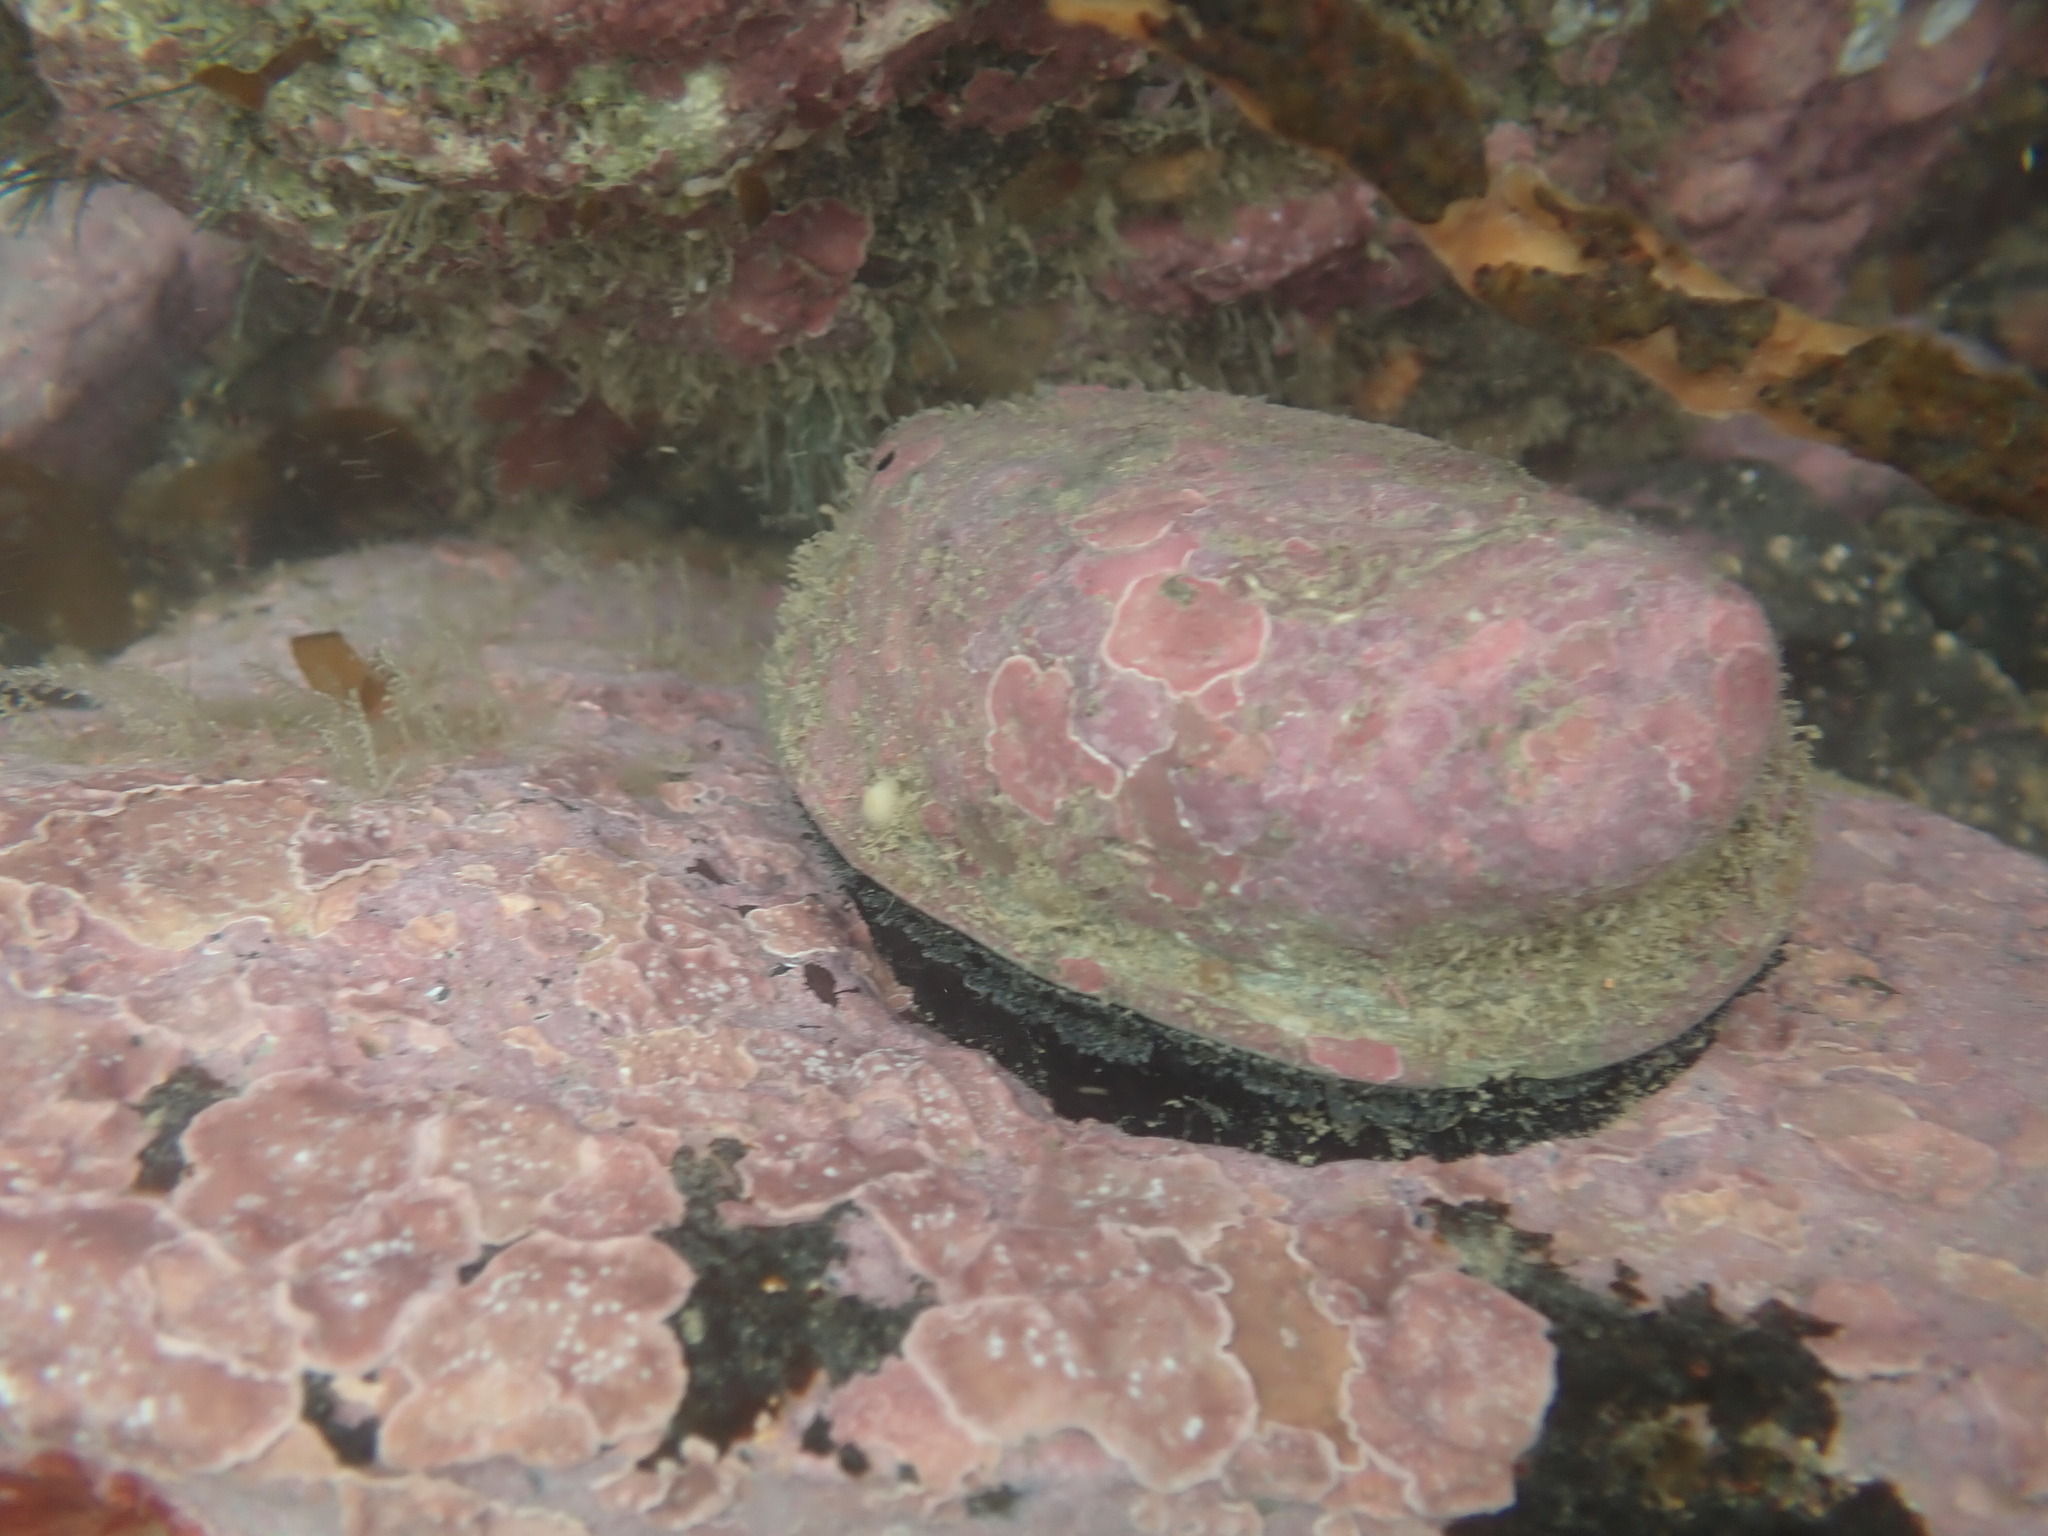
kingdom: Animalia
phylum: Mollusca
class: Gastropoda
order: Lepetellida
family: Haliotidae
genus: Haliotis
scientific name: Haliotis iris
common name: Abalone
